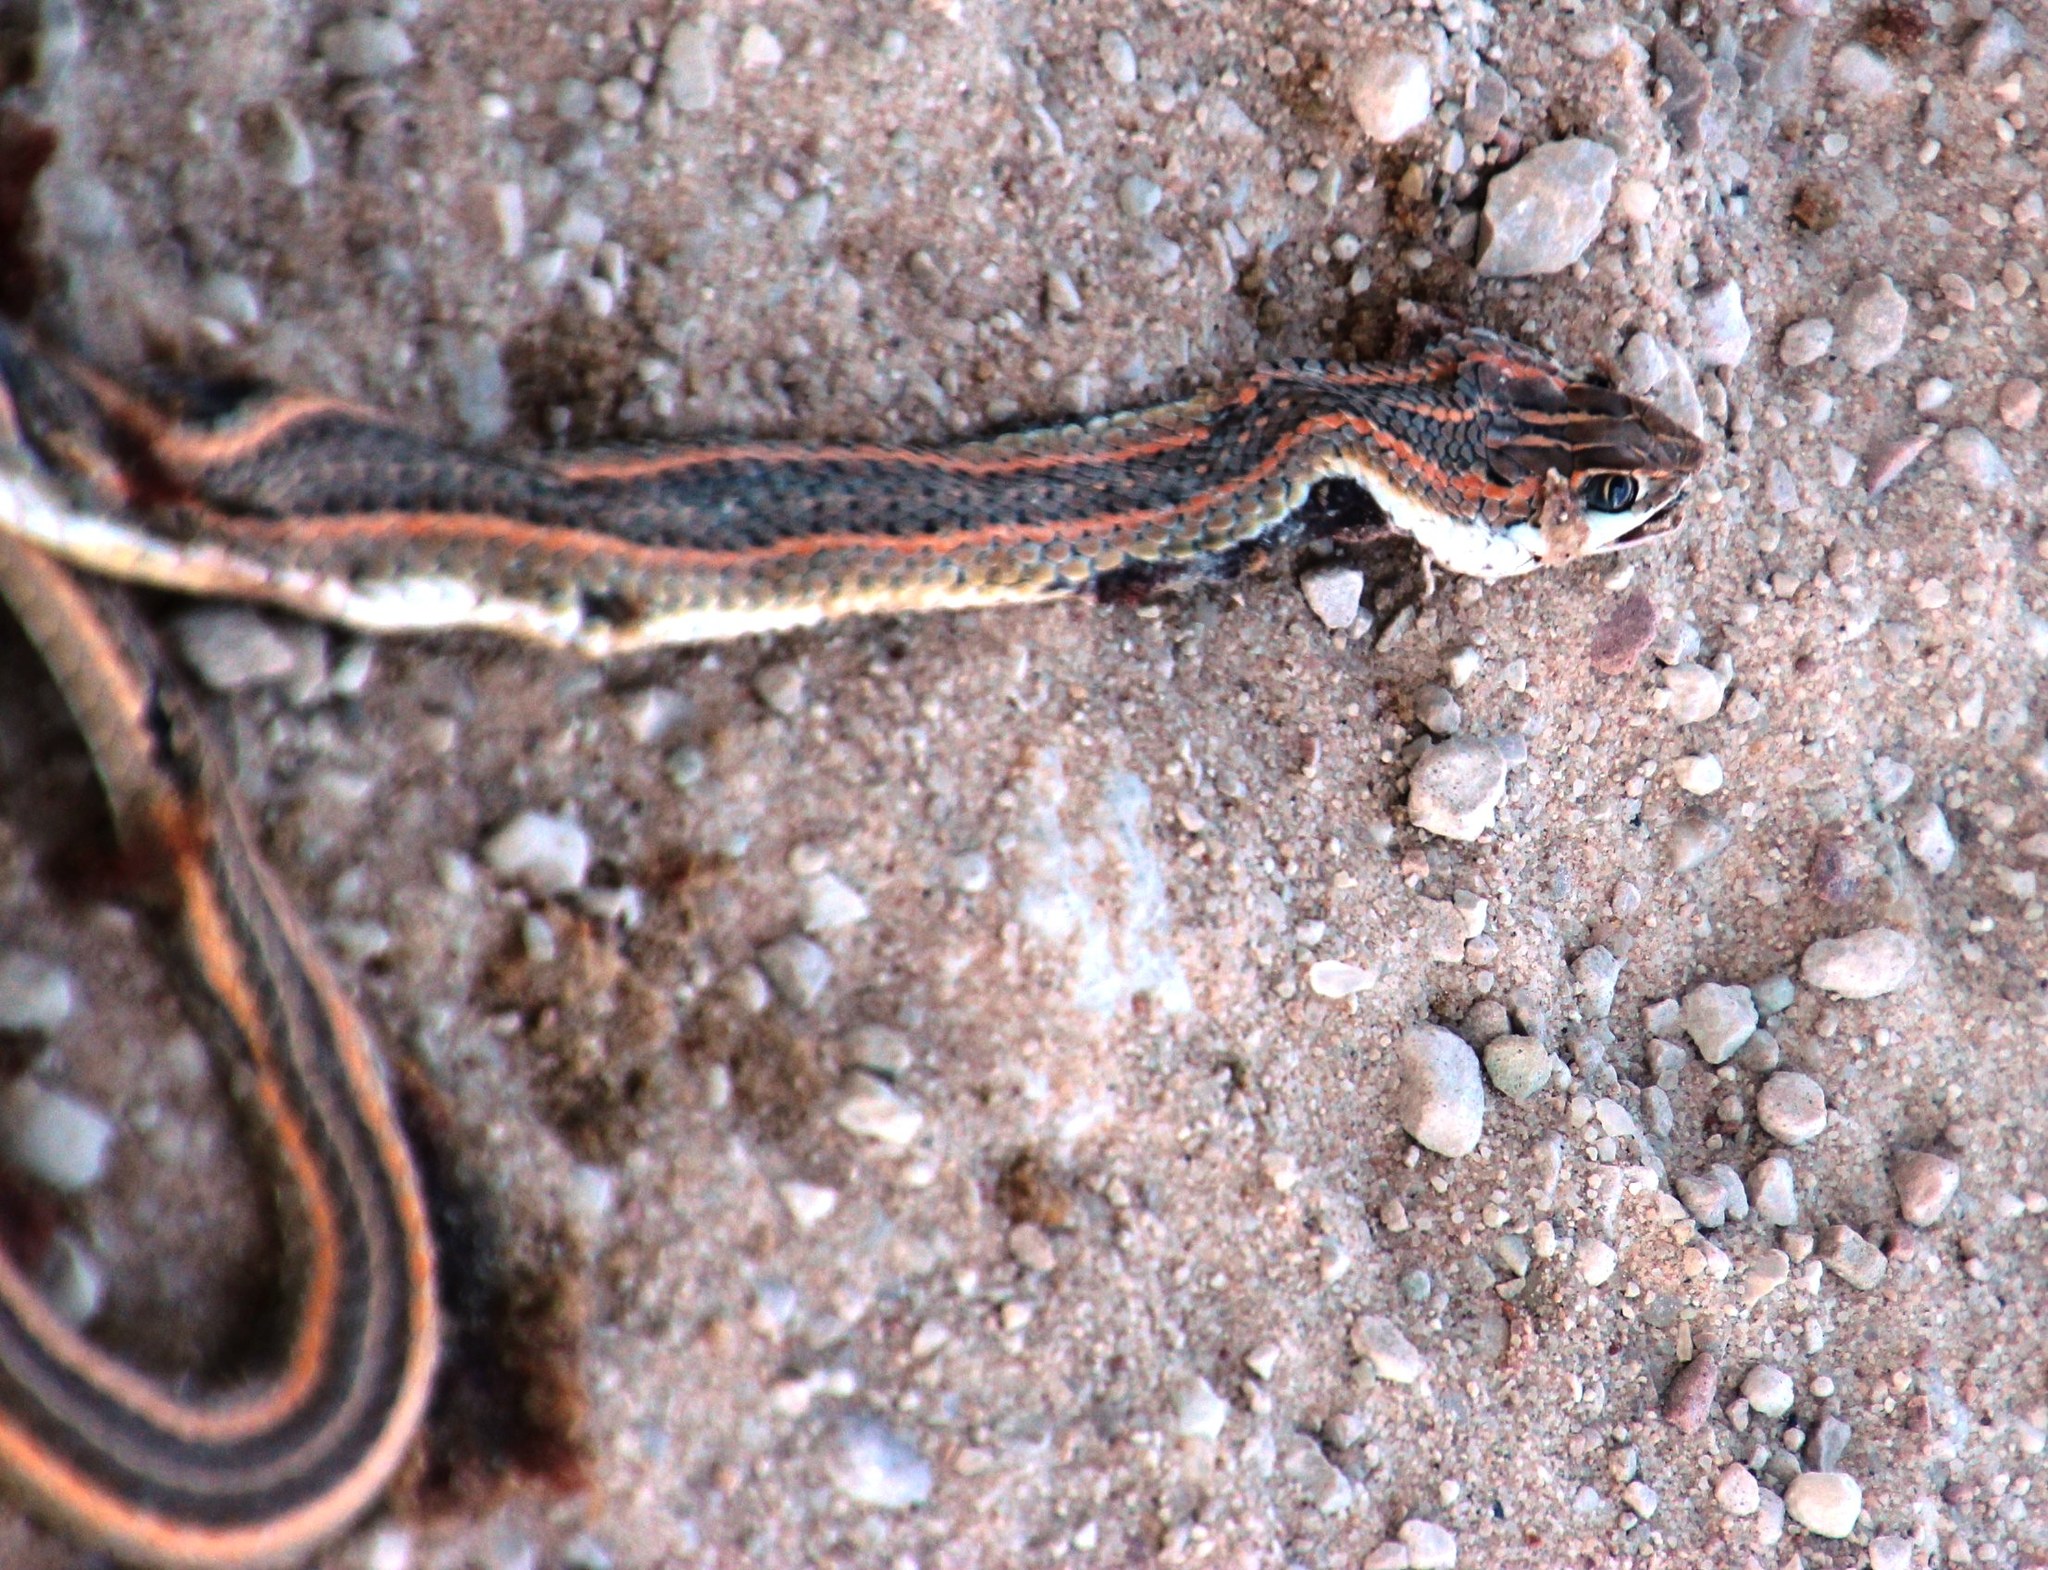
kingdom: Animalia
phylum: Chordata
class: Squamata
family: Psammophiidae
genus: Psammophis
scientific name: Psammophis leightoni
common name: Cape sand snake
